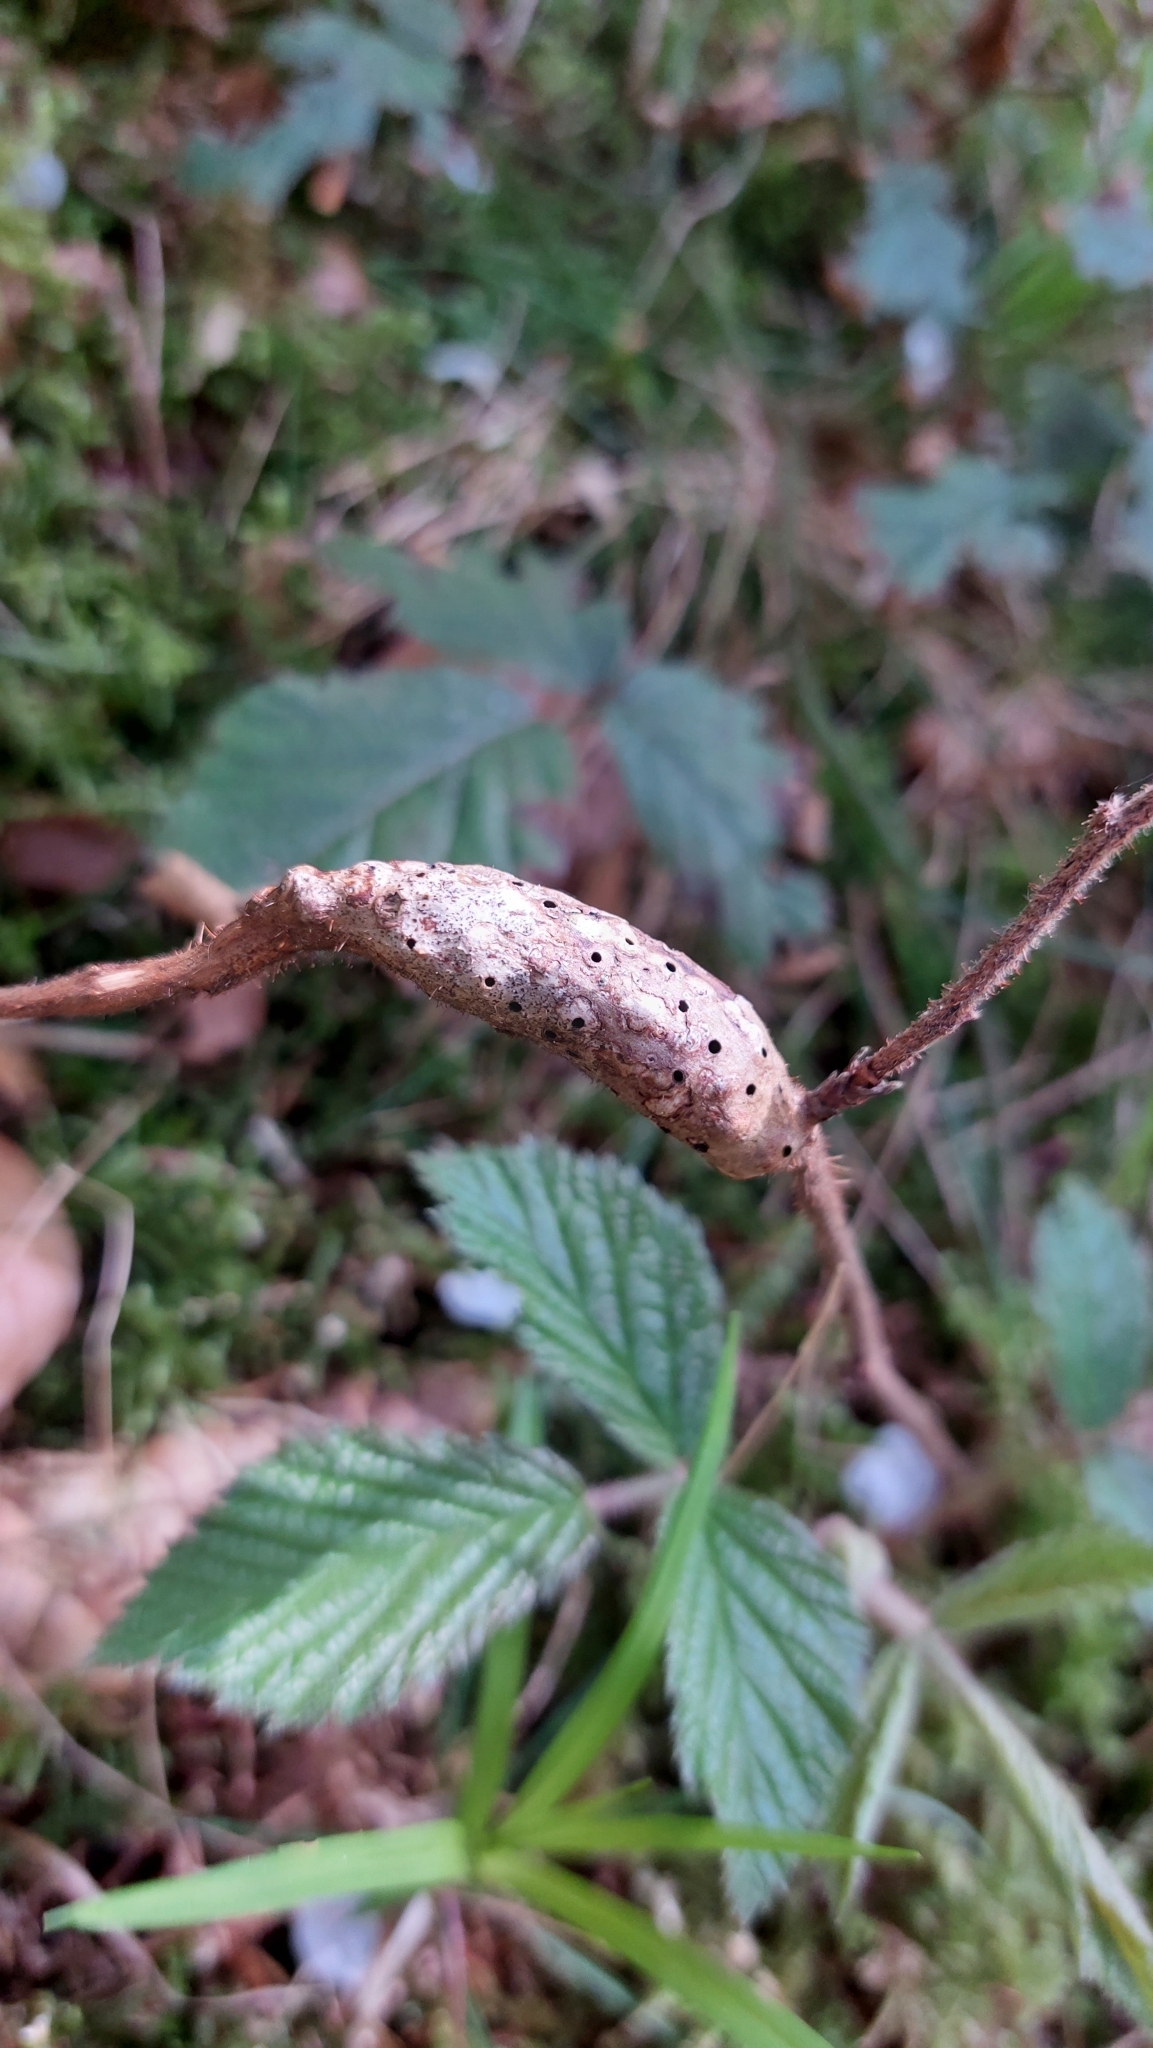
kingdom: Animalia
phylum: Arthropoda
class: Insecta
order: Hymenoptera
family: Cynipidae
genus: Diastrophus
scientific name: Diastrophus rubi
